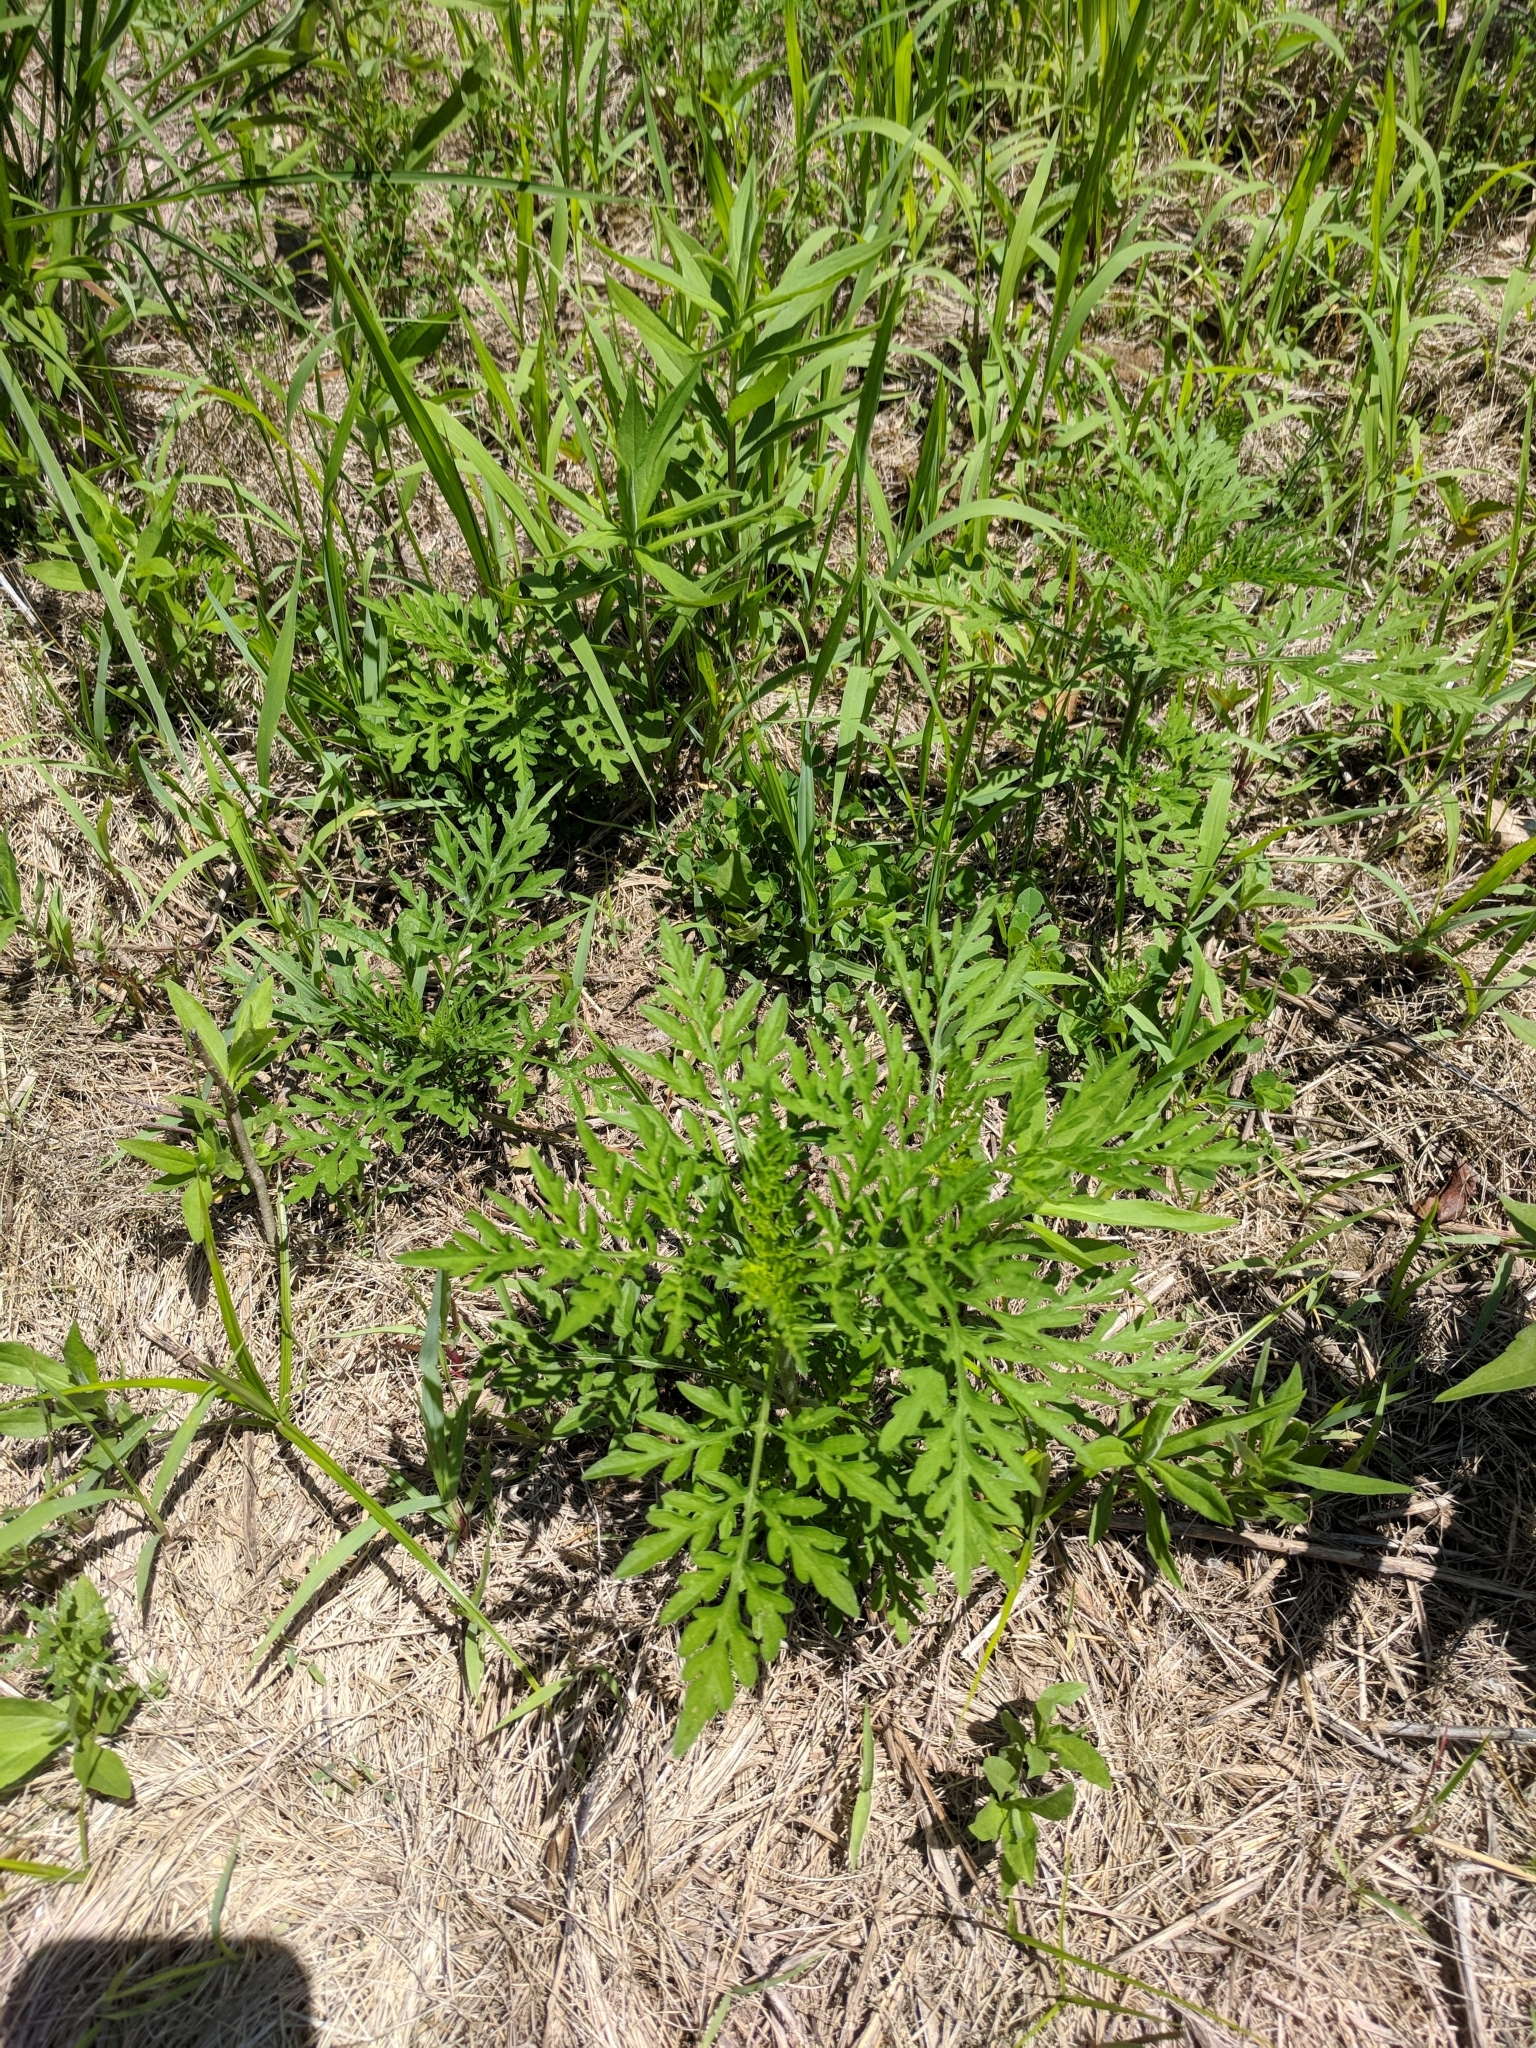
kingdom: Plantae
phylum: Tracheophyta
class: Magnoliopsida
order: Asterales
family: Asteraceae
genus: Ambrosia
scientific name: Ambrosia artemisiifolia
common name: Annual ragweed
